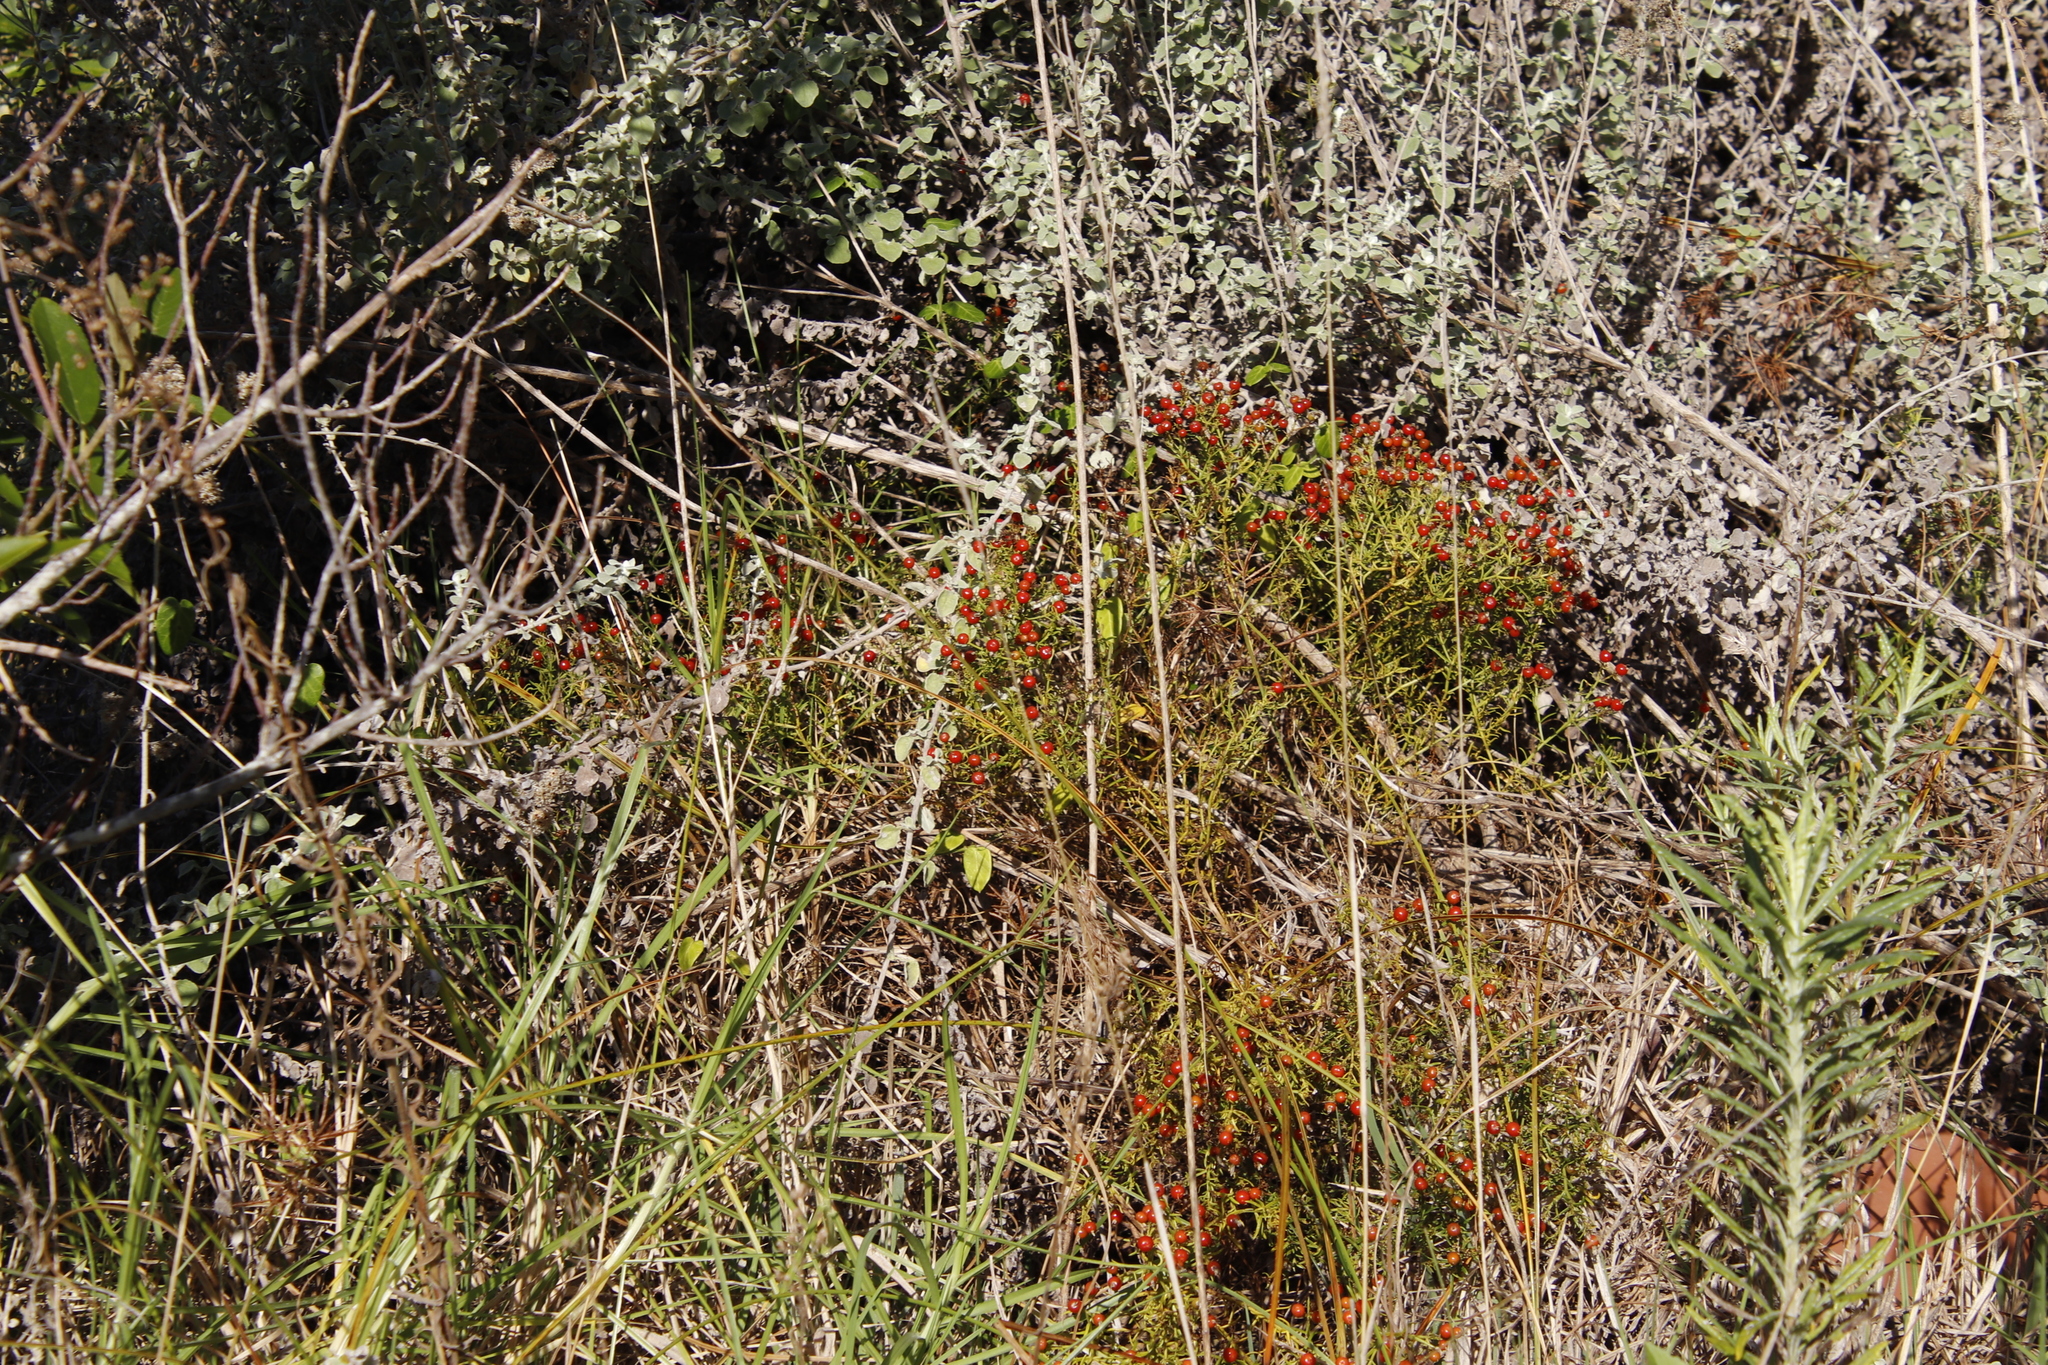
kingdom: Plantae
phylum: Tracheophyta
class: Magnoliopsida
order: Gentianales
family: Gentianaceae
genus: Chironia
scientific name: Chironia baccifera
